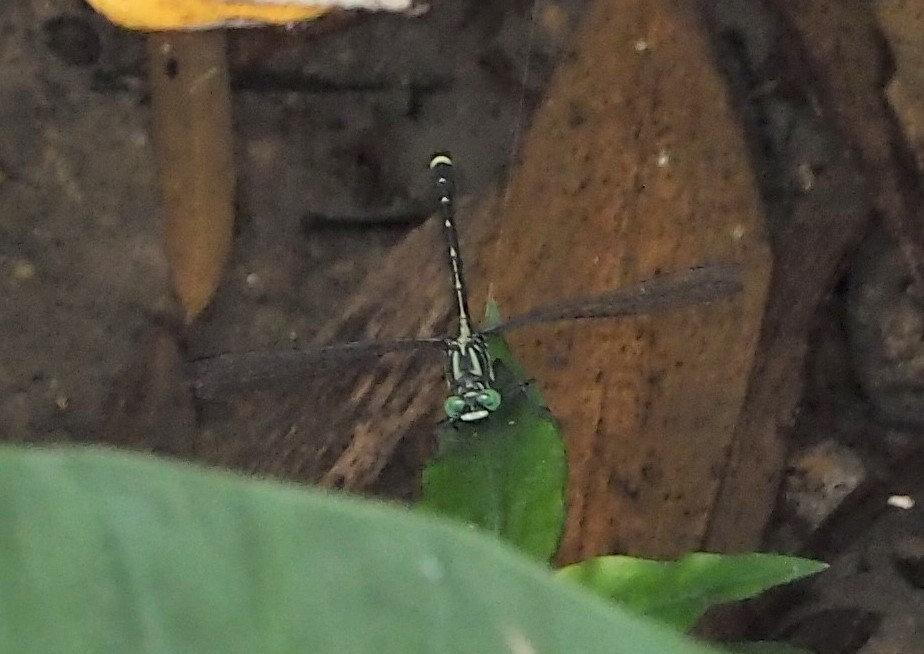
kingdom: Animalia
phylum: Arthropoda
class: Insecta
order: Odonata
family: Gomphidae
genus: Asiagomphus
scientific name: Asiagomphus septimus
